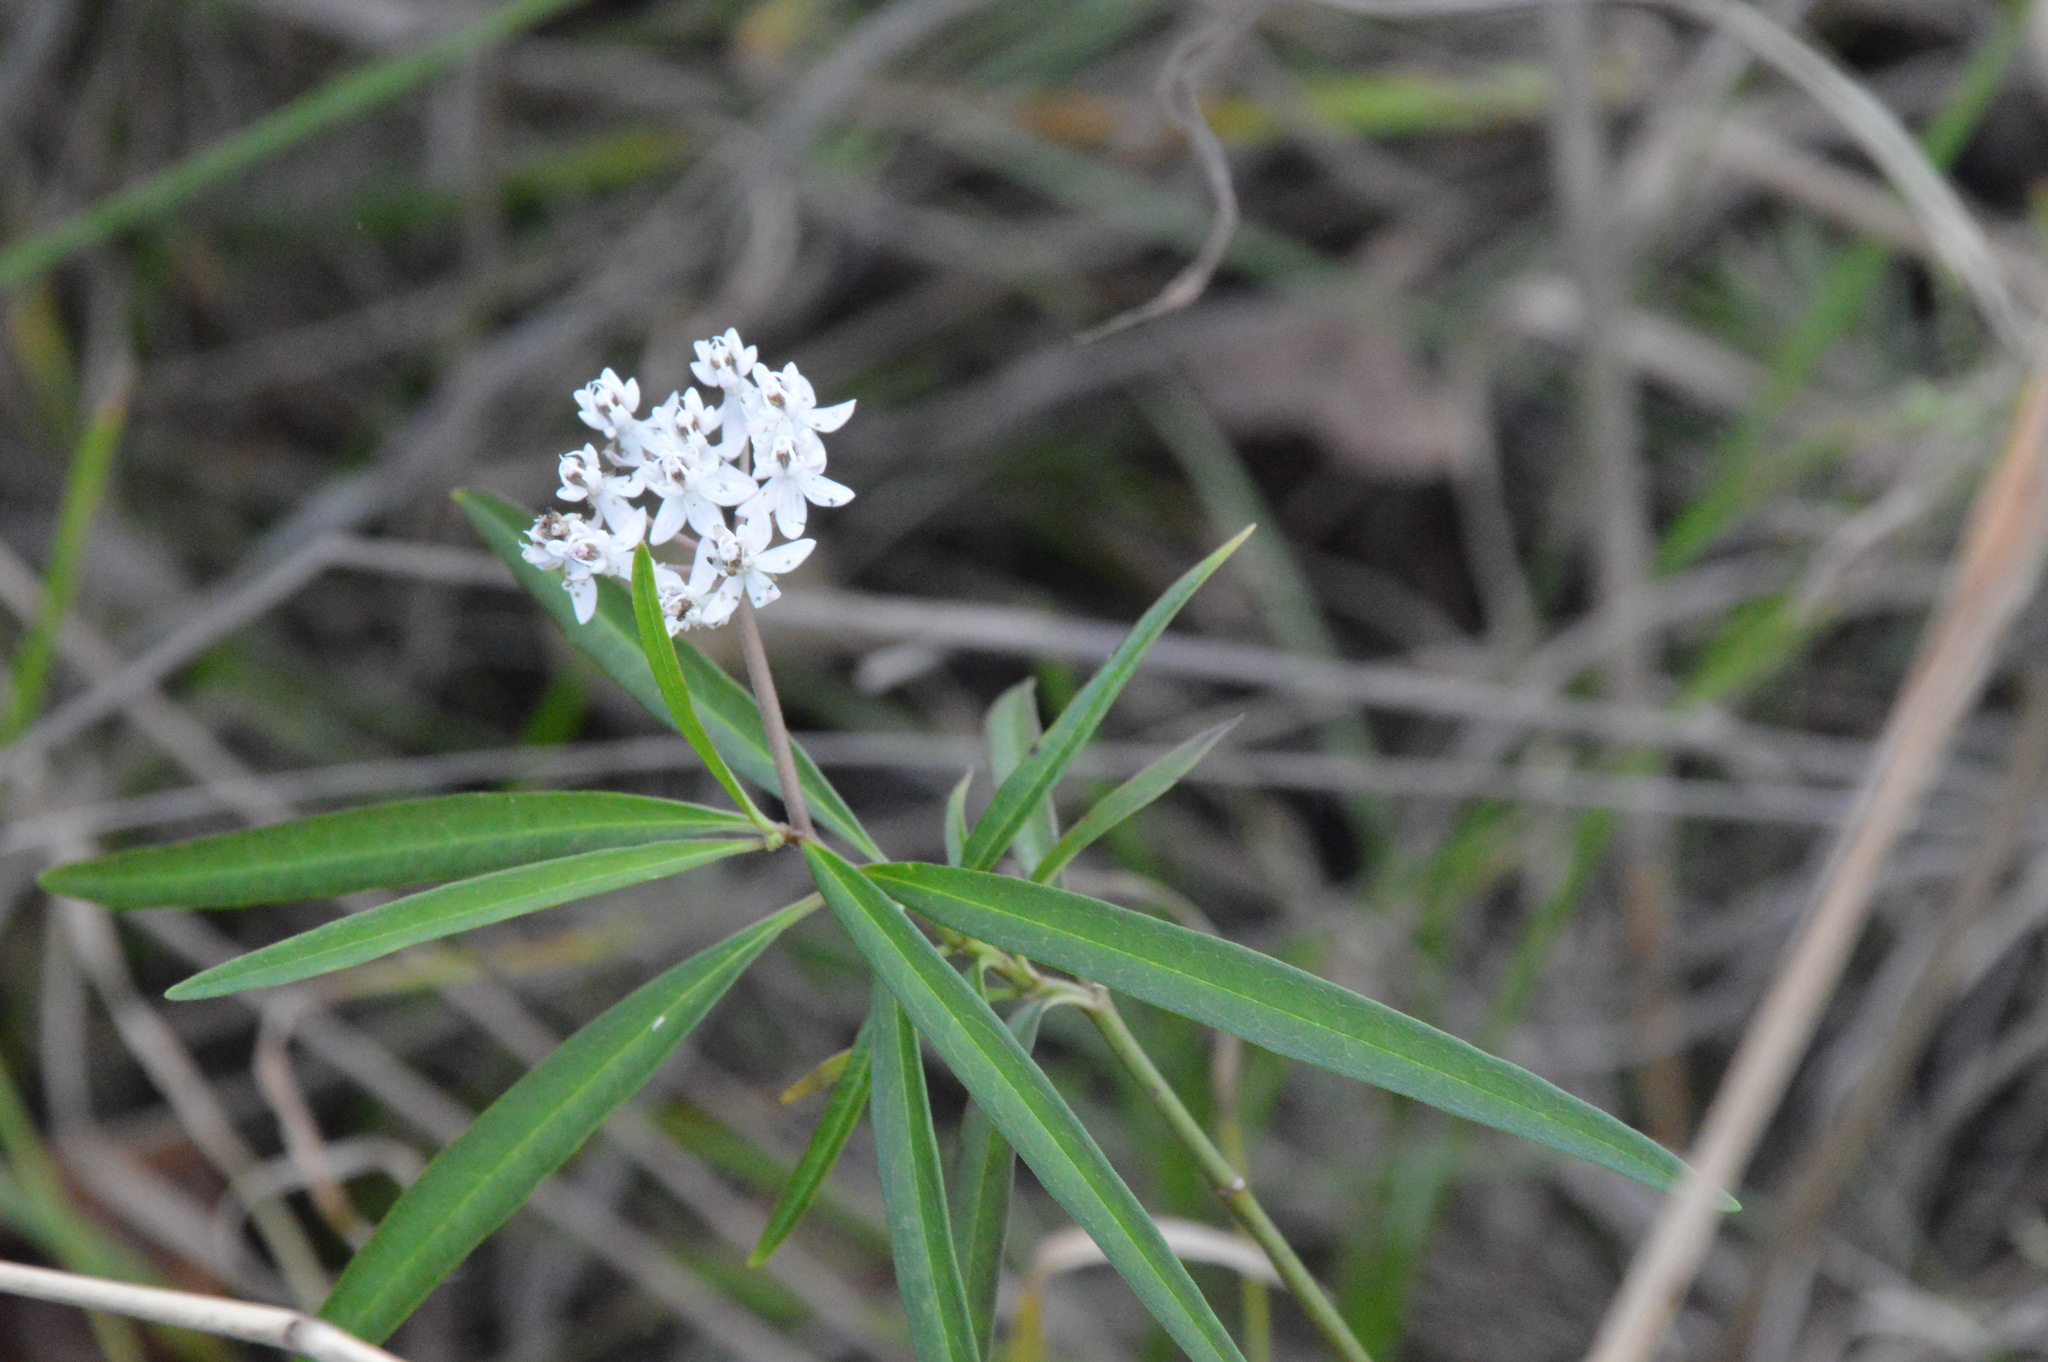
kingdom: Plantae
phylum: Tracheophyta
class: Magnoliopsida
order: Gentianales
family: Apocynaceae
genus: Asclepias
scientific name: Asclepias perennis
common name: Smooth-seed milkweed
